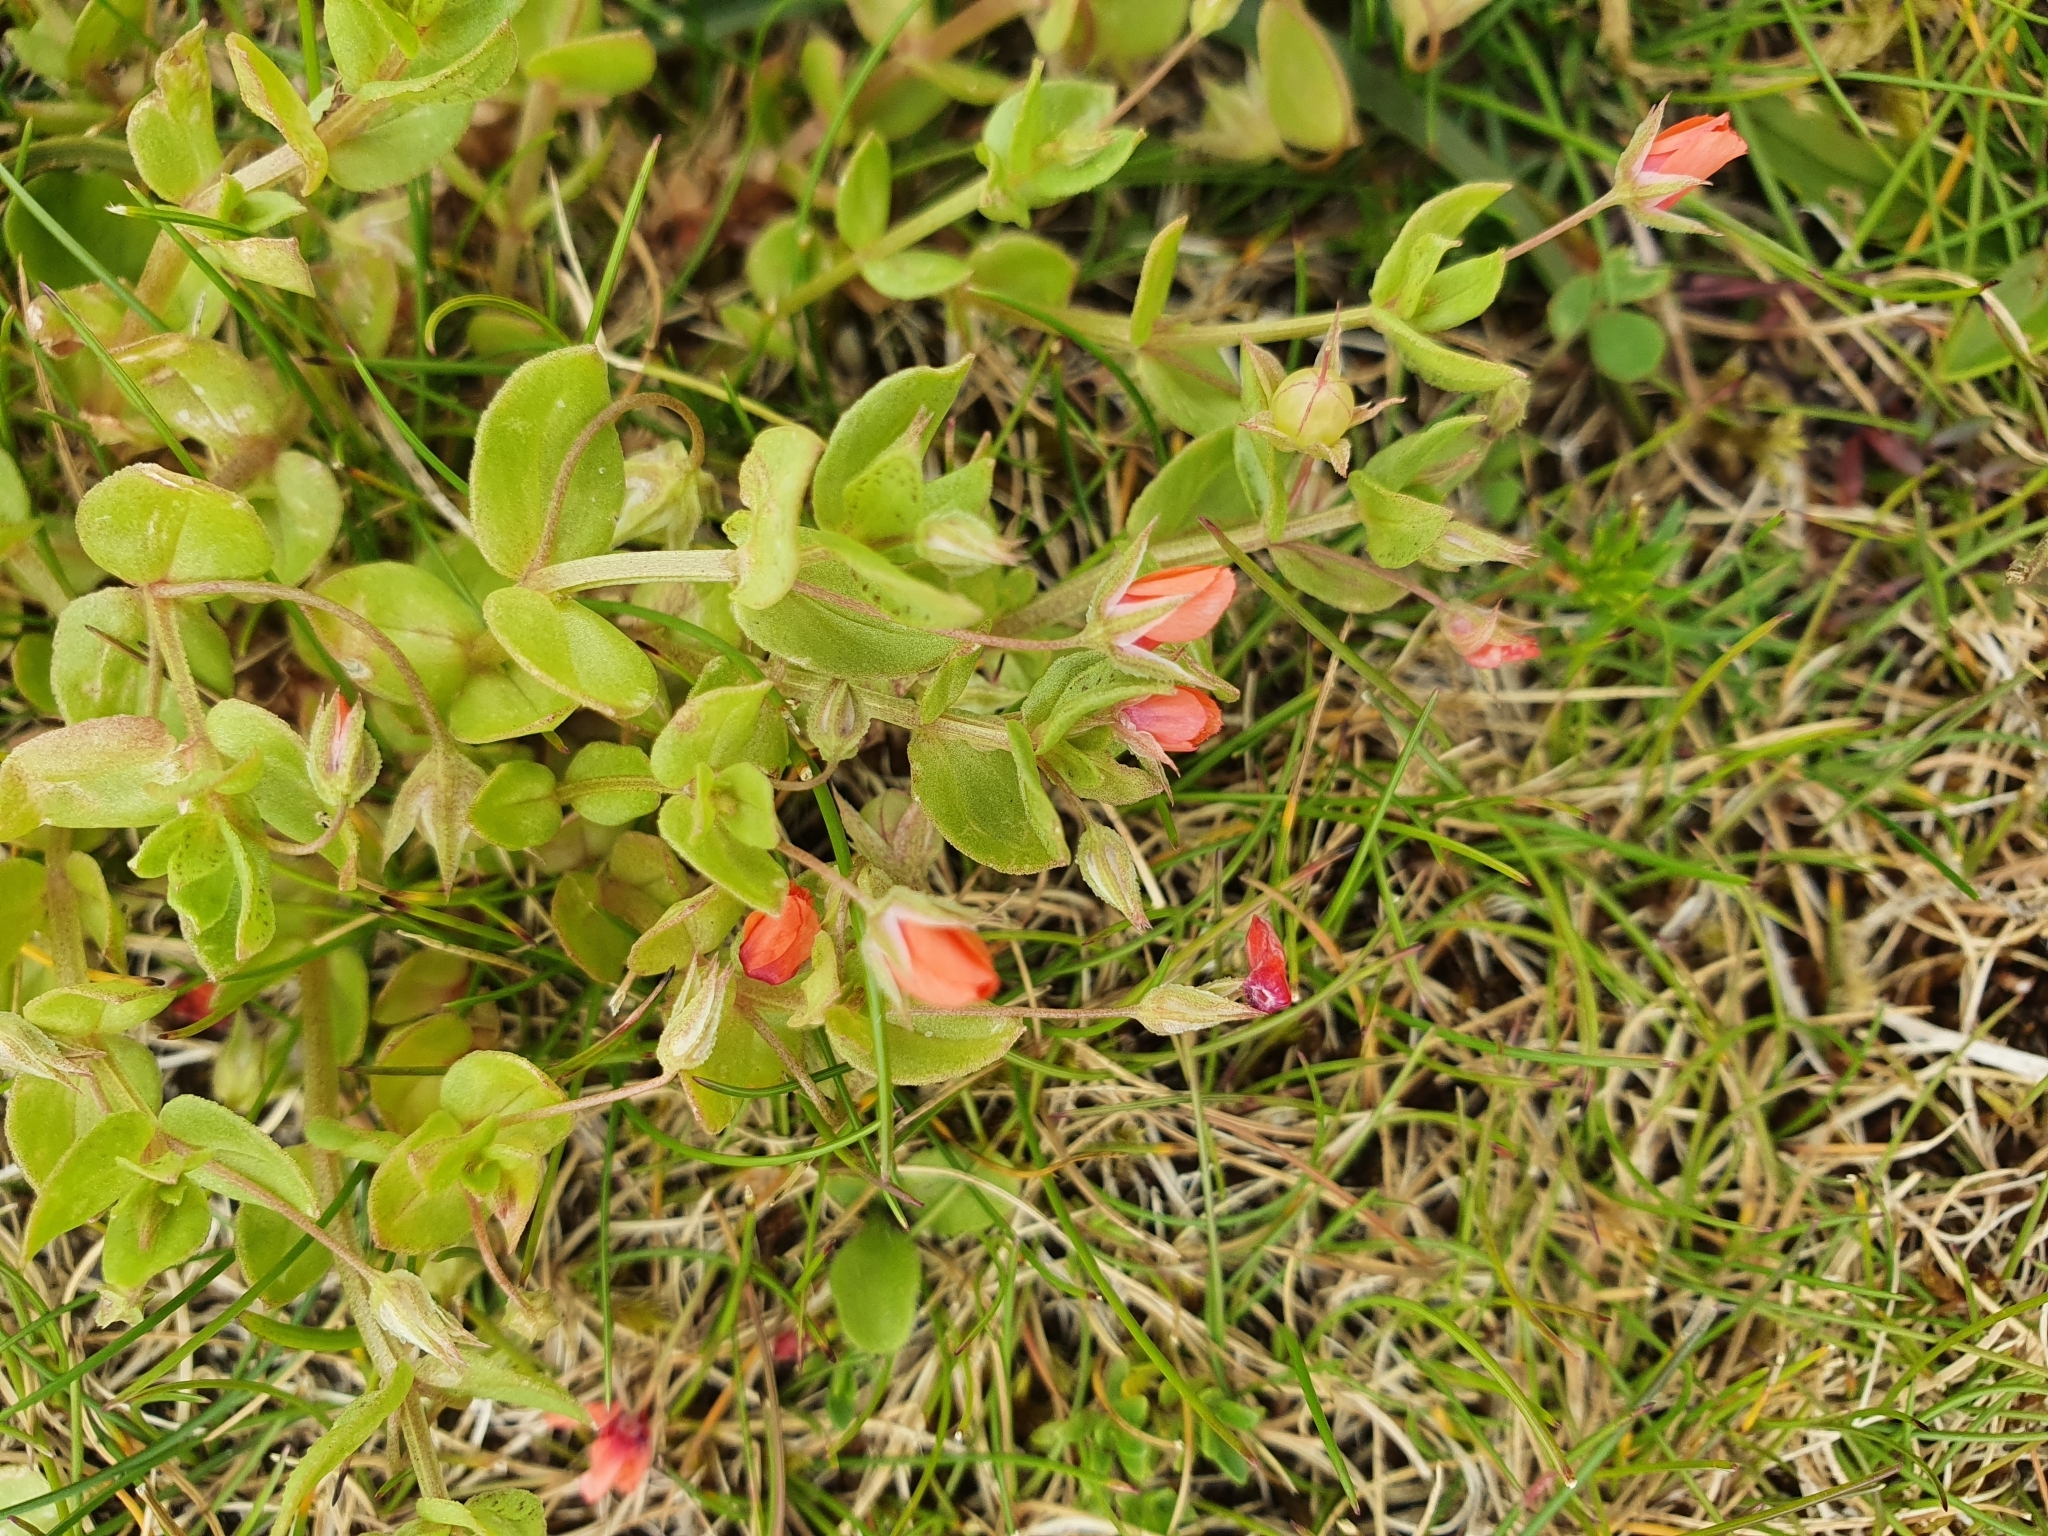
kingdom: Plantae
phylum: Tracheophyta
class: Magnoliopsida
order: Ericales
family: Primulaceae
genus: Lysimachia
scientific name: Lysimachia arvensis
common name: Scarlet pimpernel
